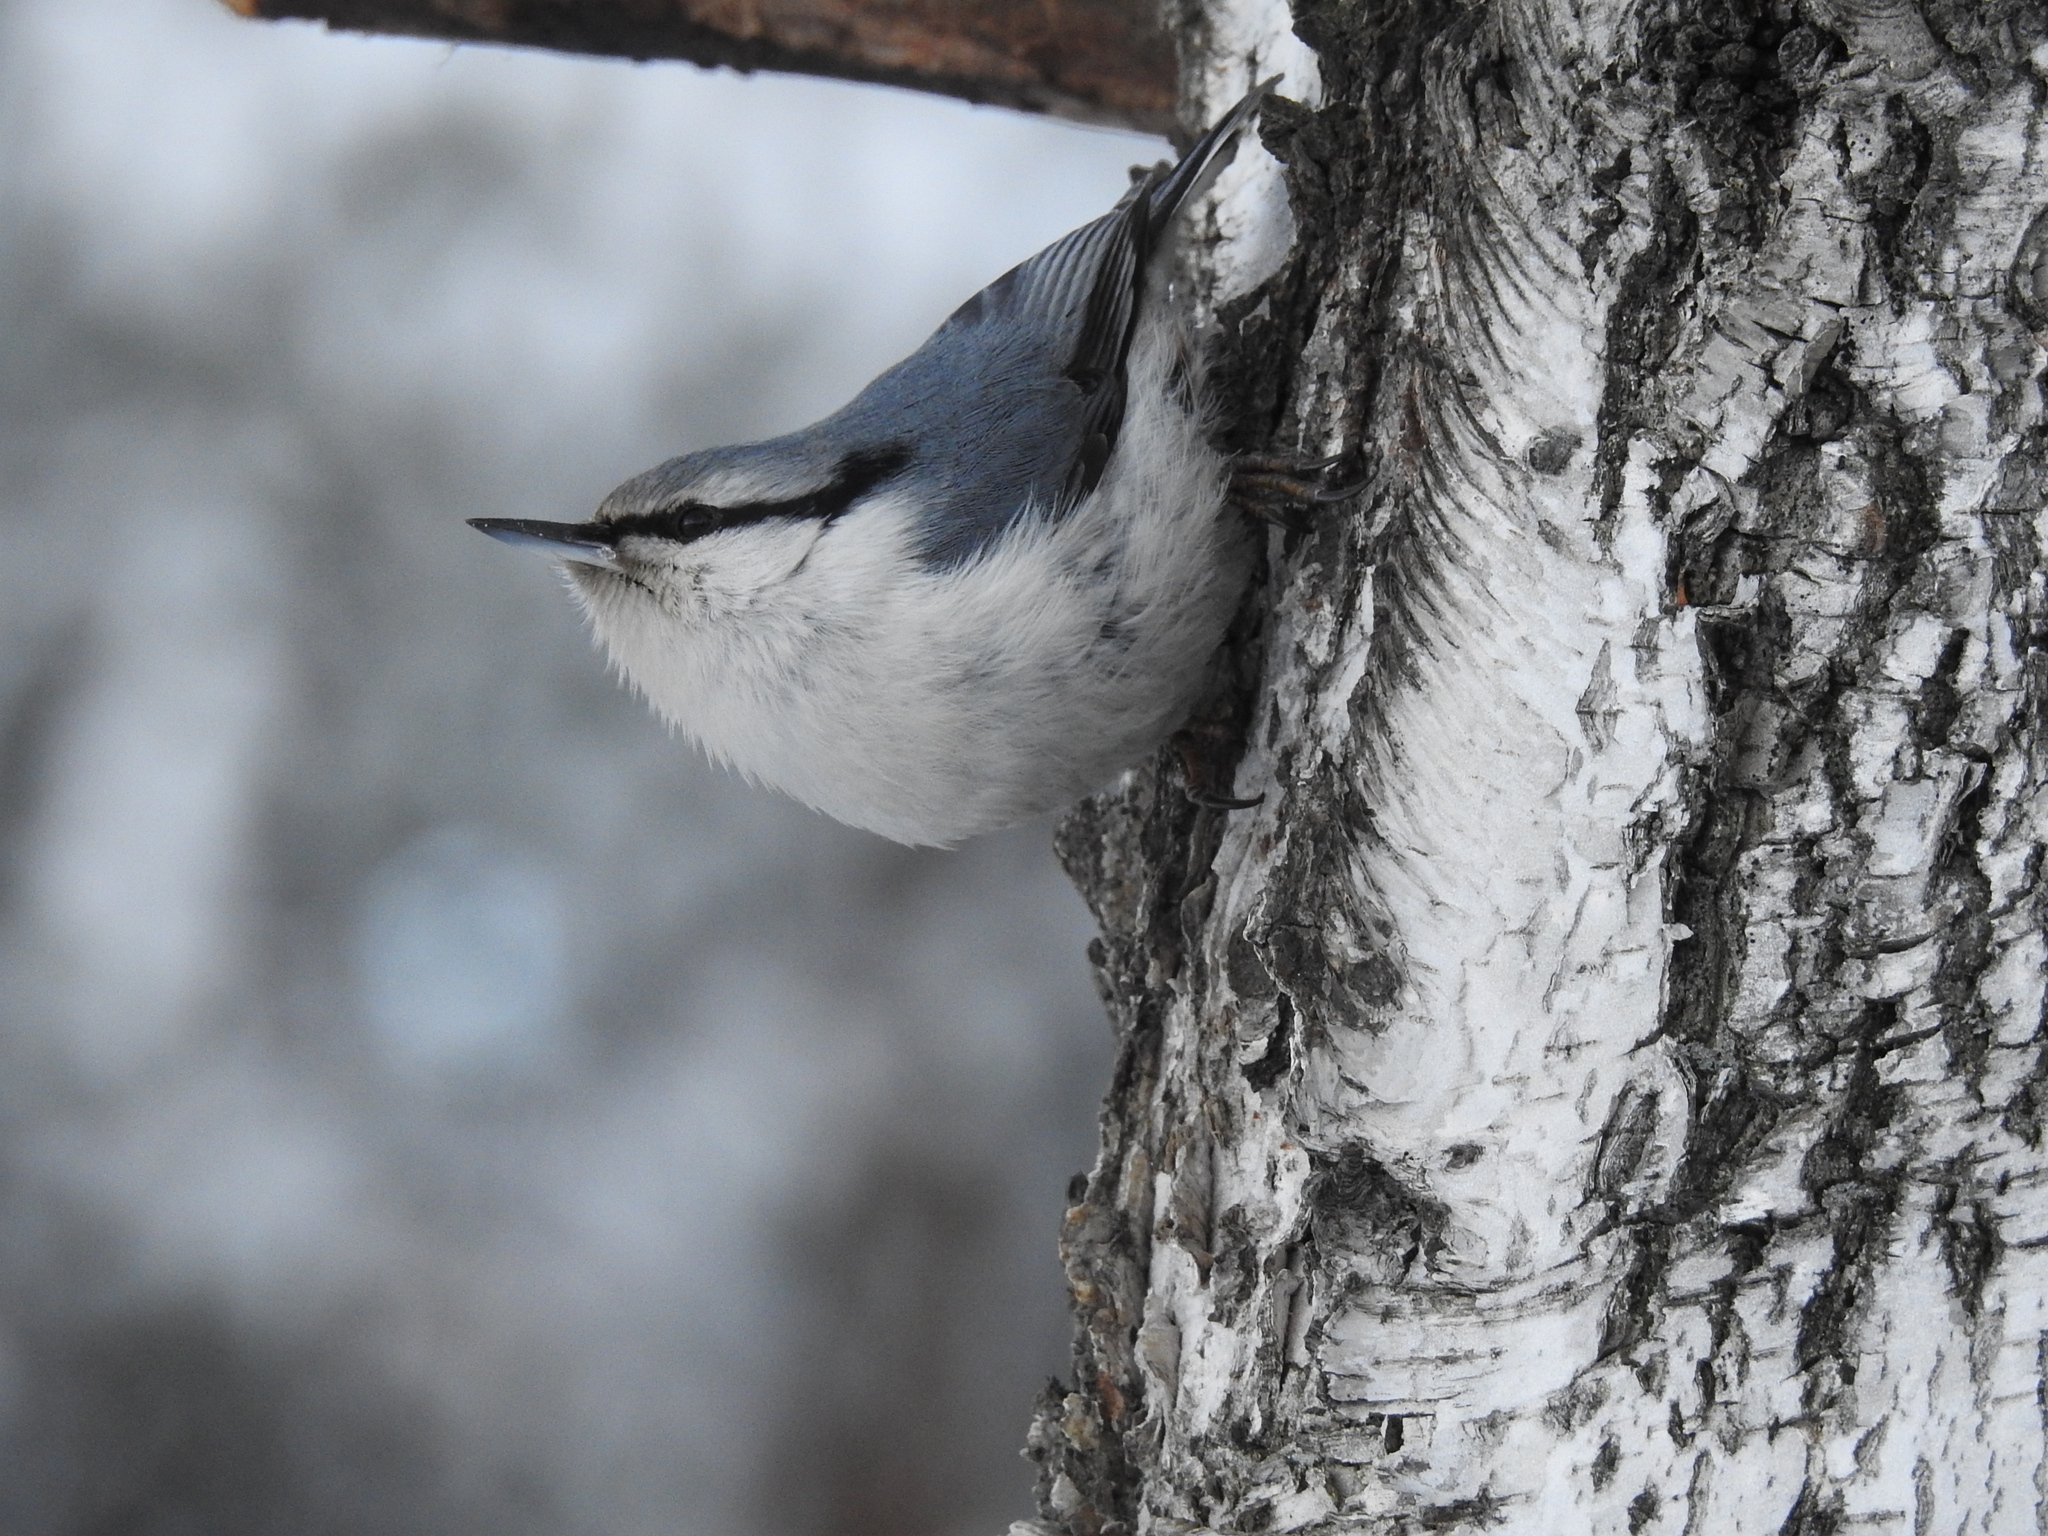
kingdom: Animalia
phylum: Chordata
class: Aves
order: Passeriformes
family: Sittidae
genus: Sitta
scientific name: Sitta europaea
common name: Eurasian nuthatch
